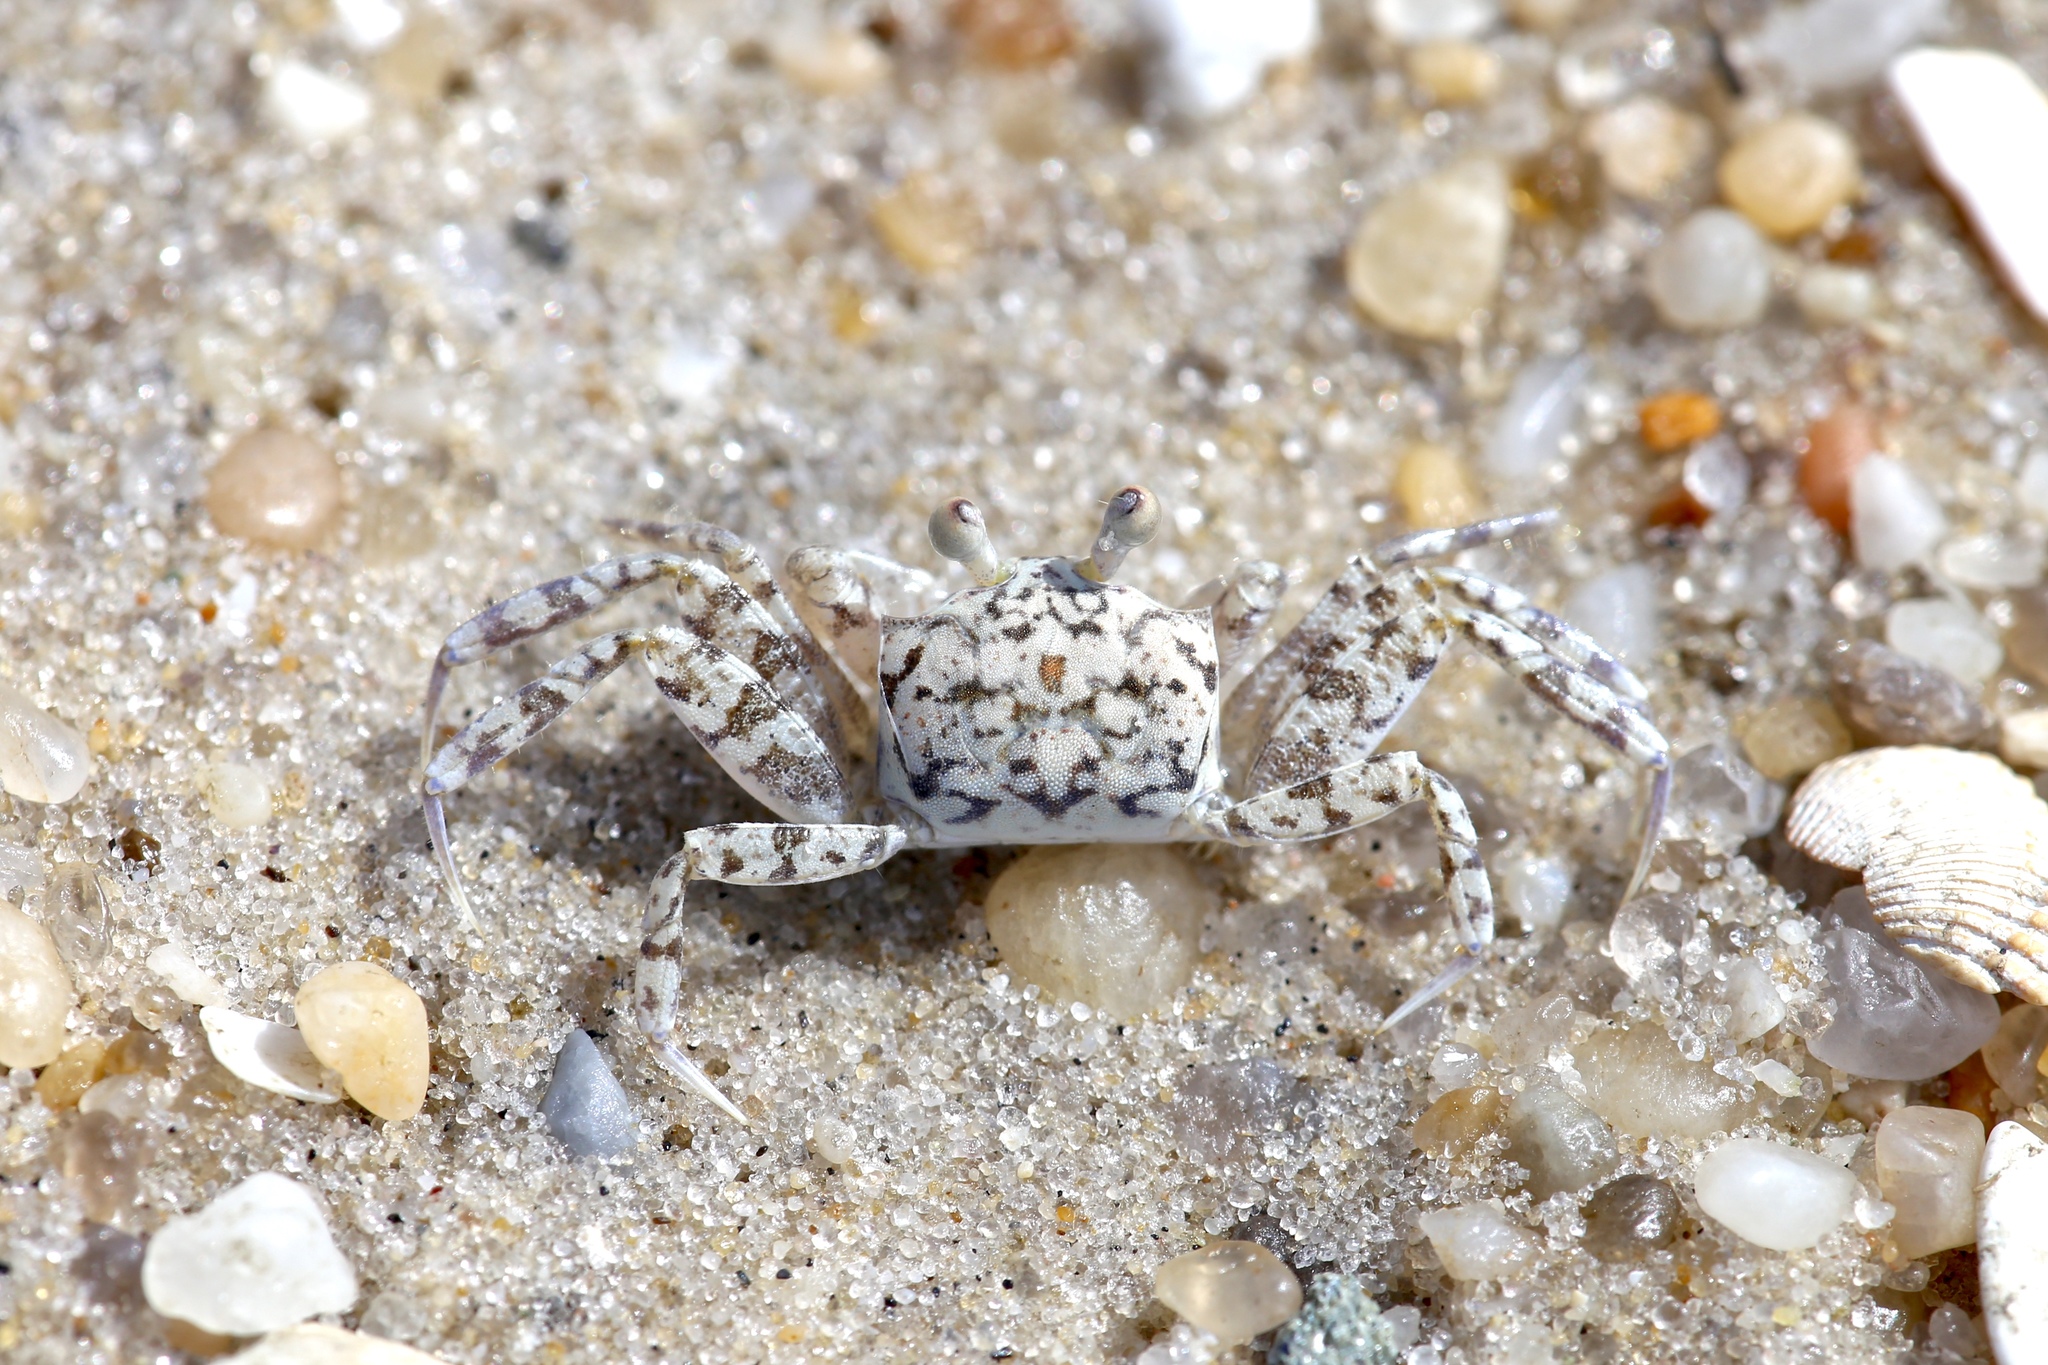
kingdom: Animalia
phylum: Arthropoda
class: Malacostraca
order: Decapoda
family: Ocypodidae
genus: Ocypode
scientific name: Ocypode quadrata
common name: Ghost crab
